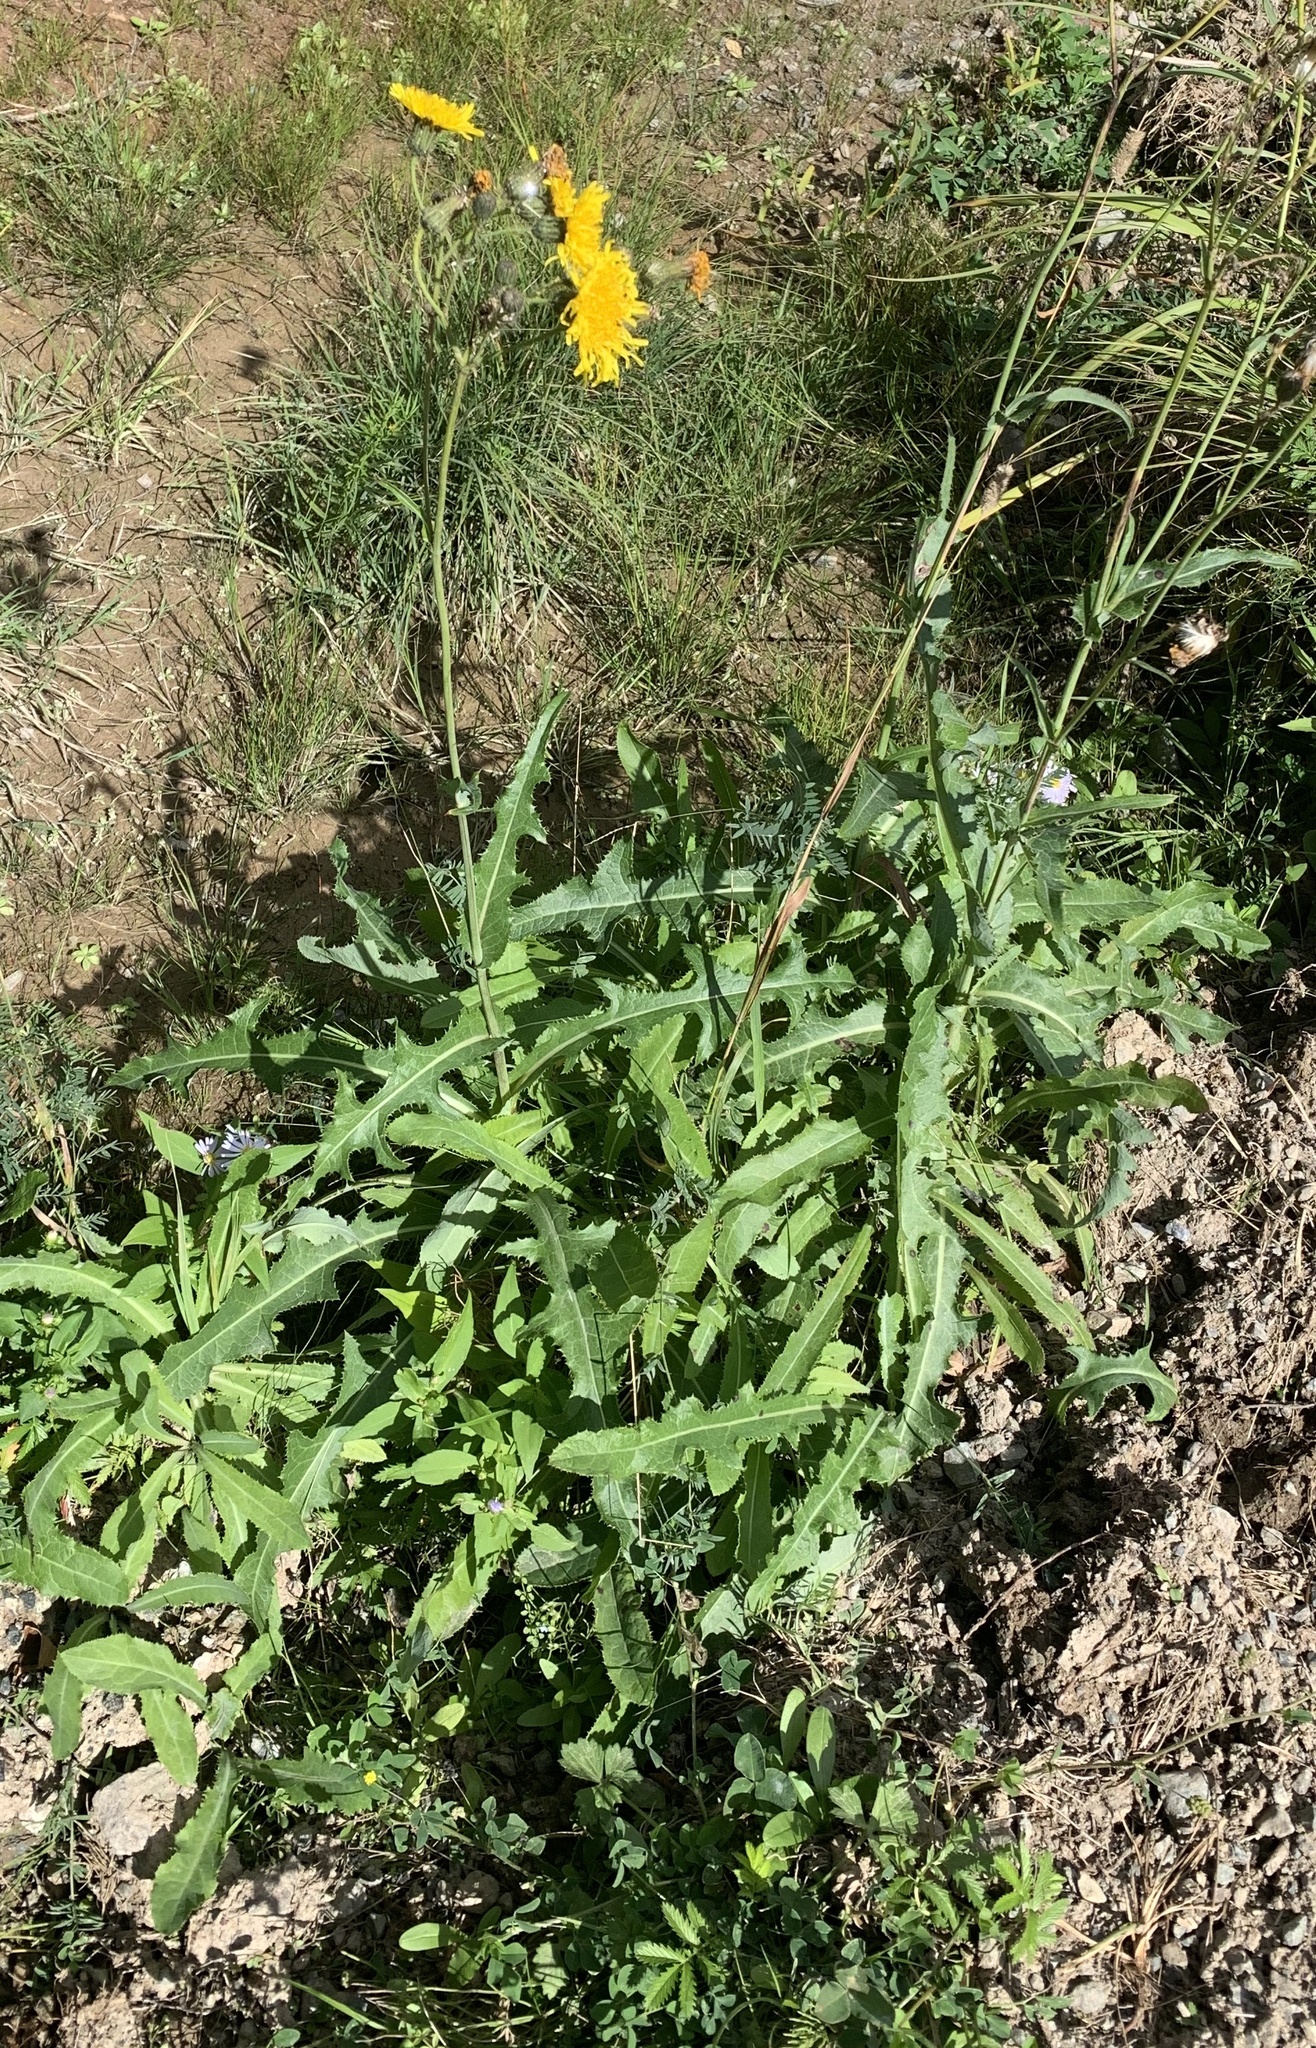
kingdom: Plantae
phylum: Tracheophyta
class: Magnoliopsida
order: Asterales
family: Asteraceae
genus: Sonchus
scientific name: Sonchus arvensis
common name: Perennial sow-thistle
